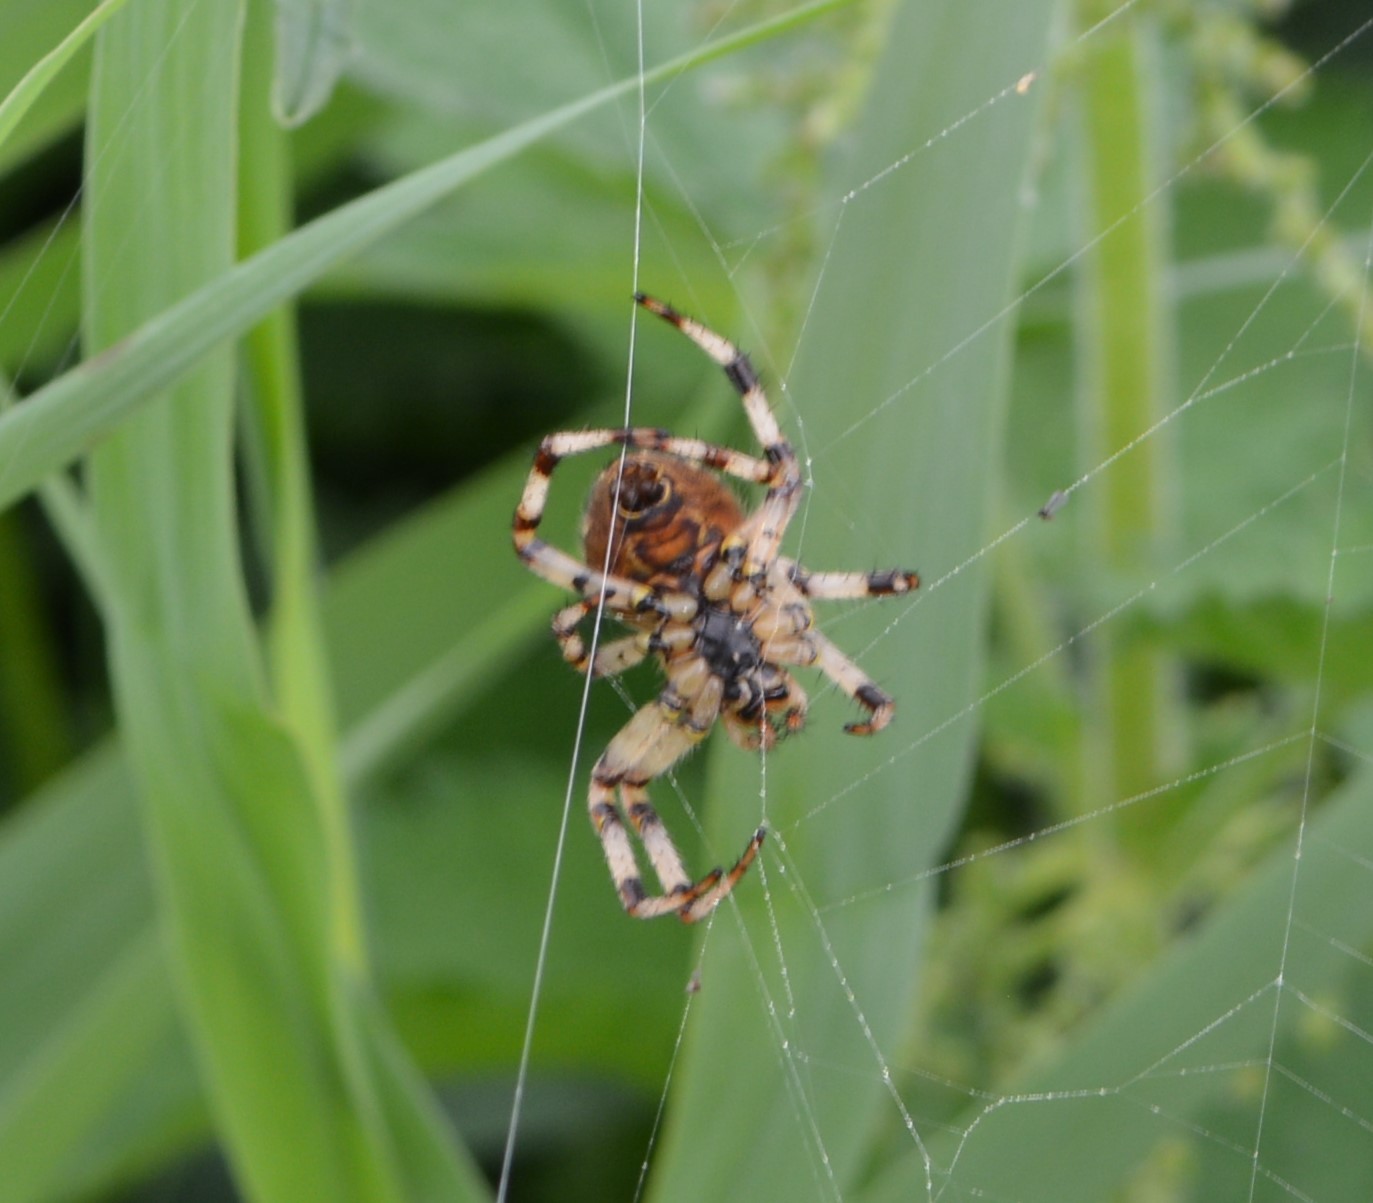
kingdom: Animalia
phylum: Arthropoda
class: Arachnida
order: Araneae
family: Araneidae
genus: Araneus
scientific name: Araneus quadratus
